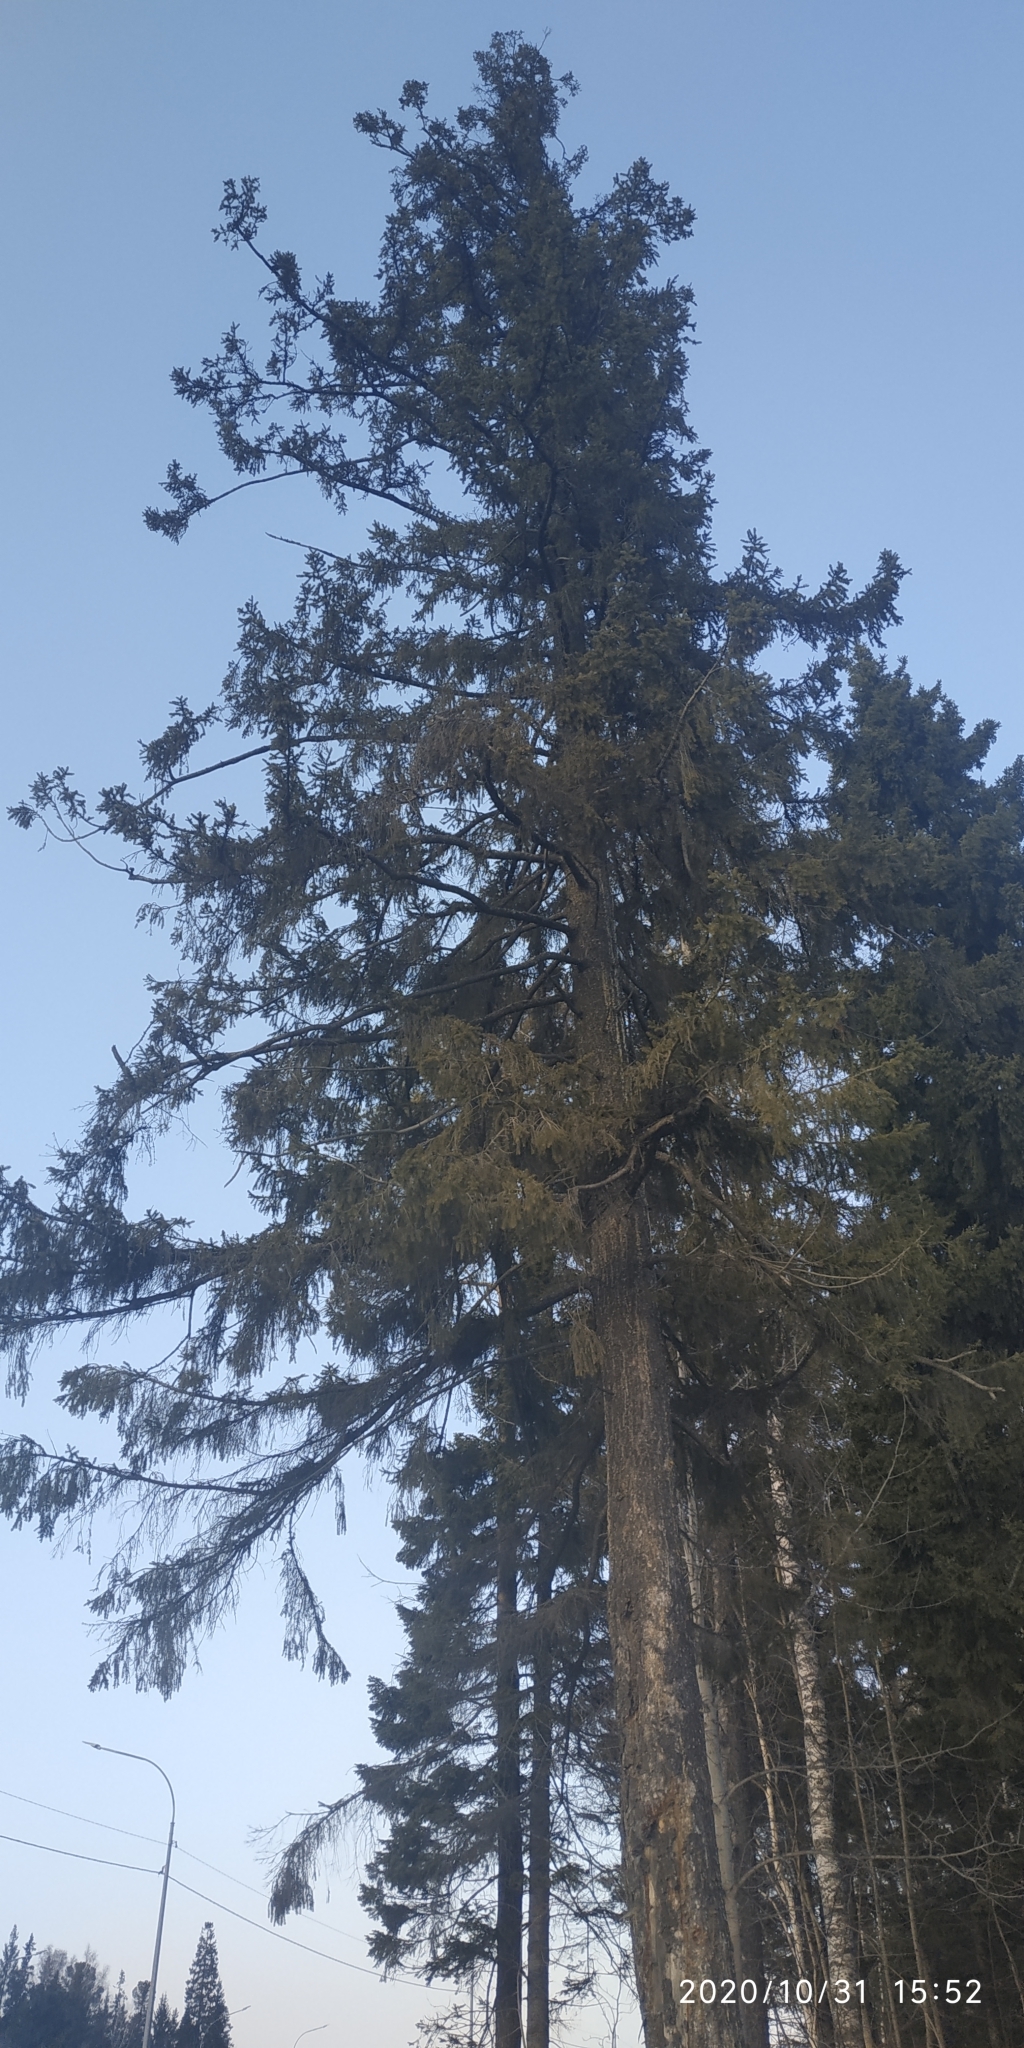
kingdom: Plantae
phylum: Tracheophyta
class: Pinopsida
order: Pinales
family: Pinaceae
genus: Picea
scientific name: Picea obovata
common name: Siberian spruce
